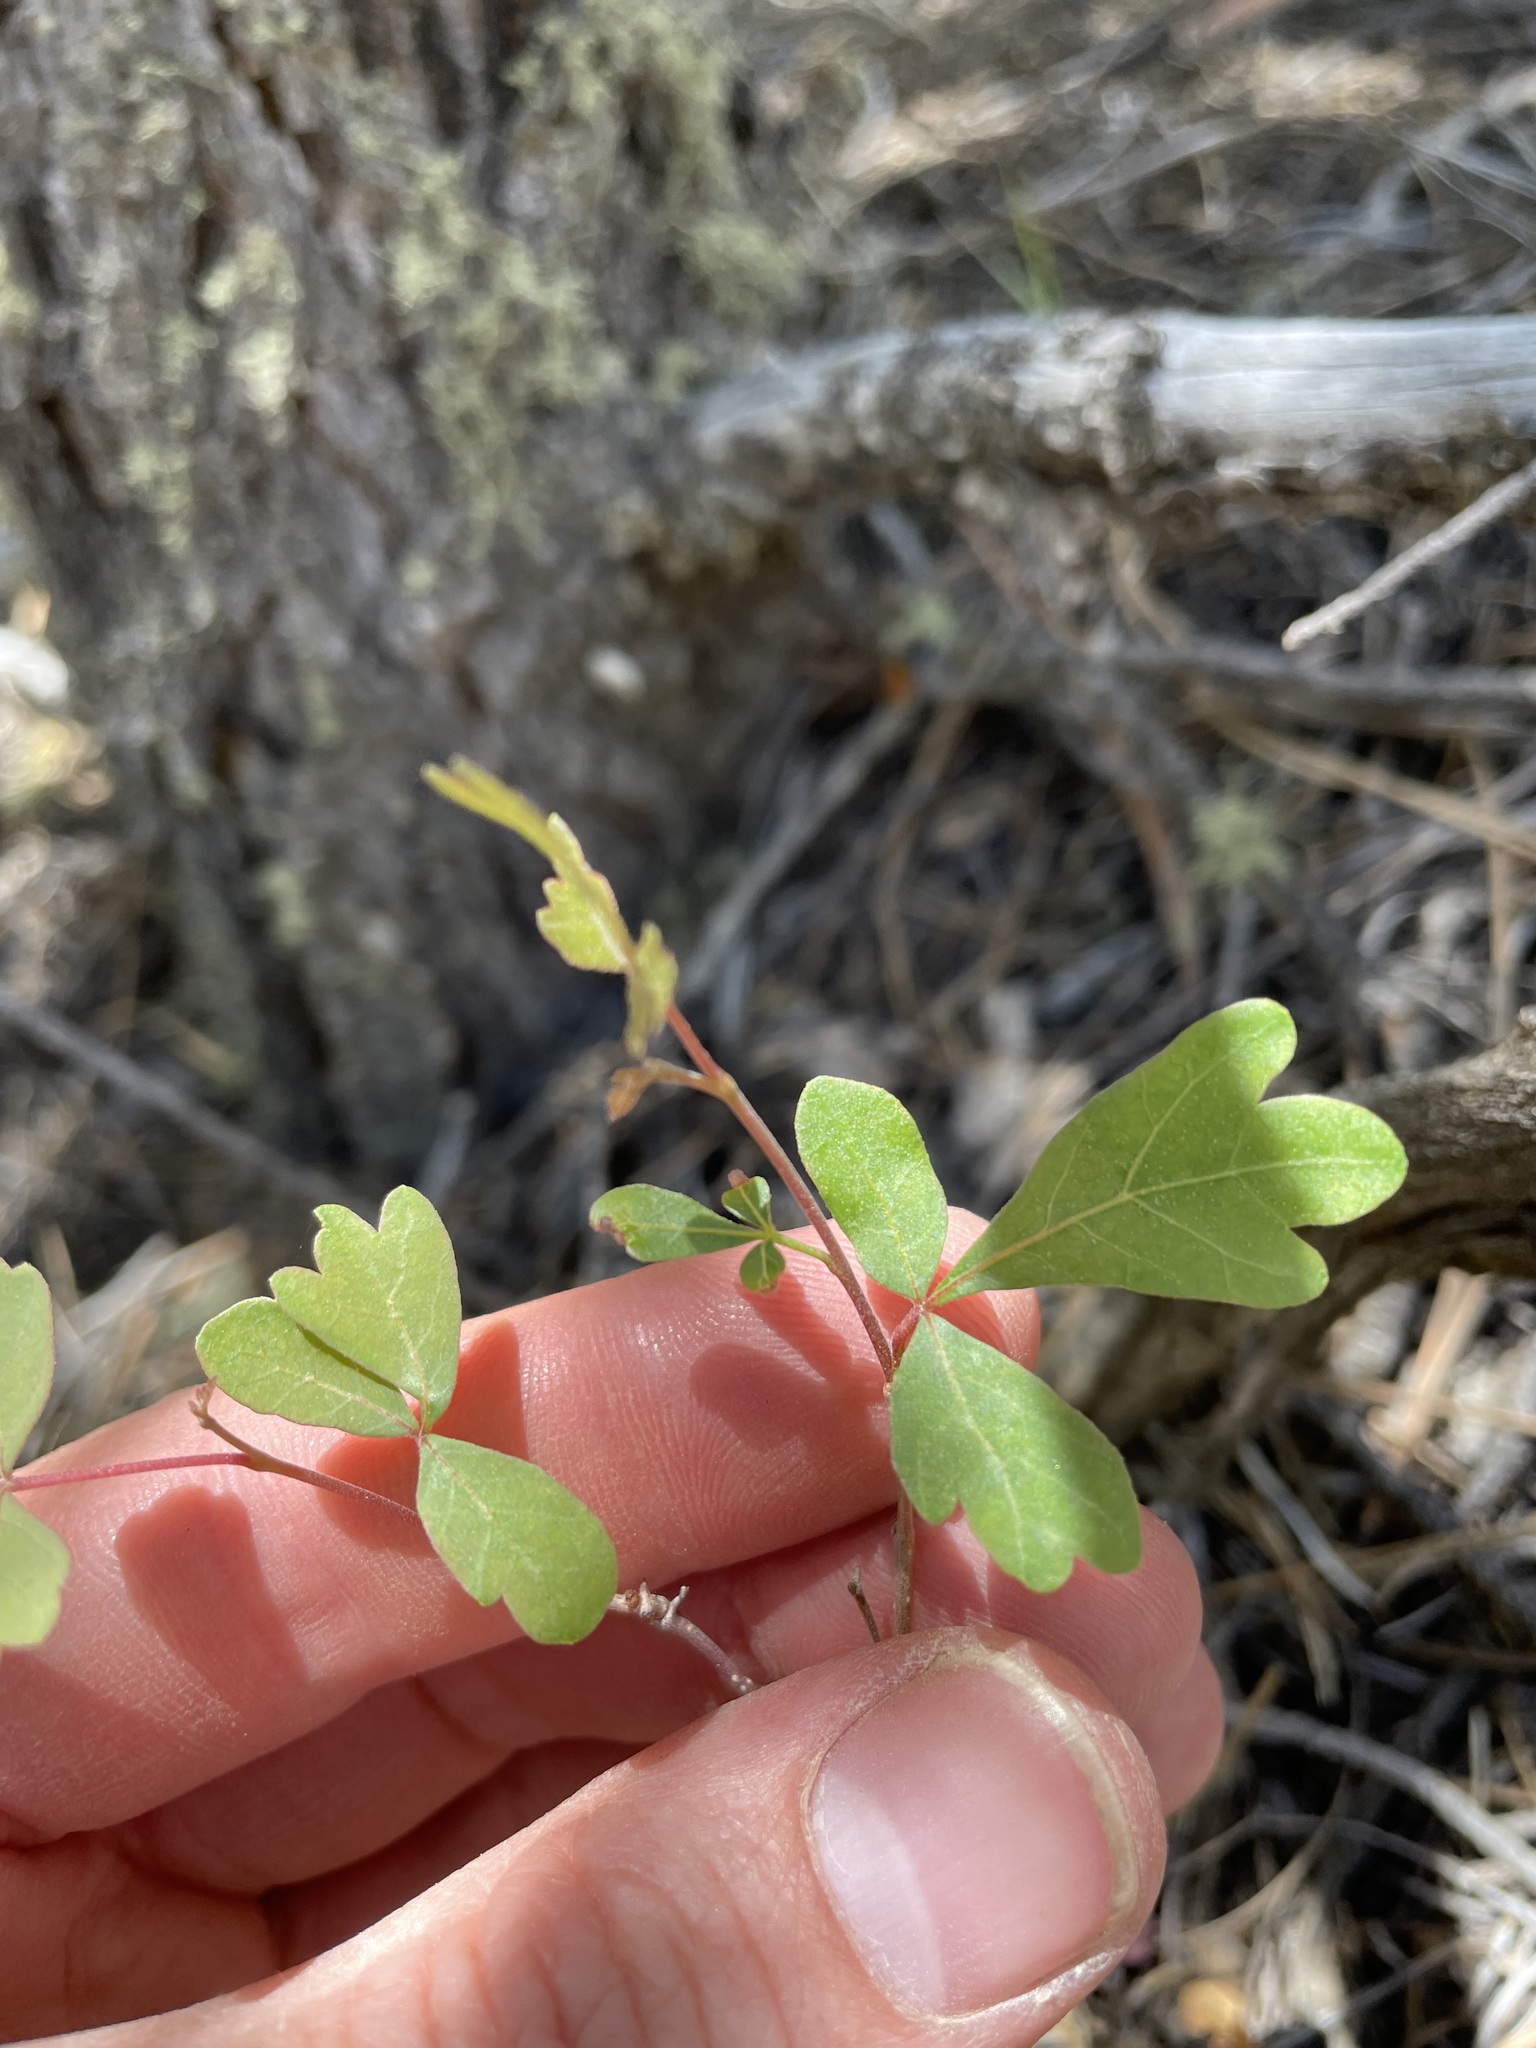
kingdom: Plantae
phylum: Tracheophyta
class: Magnoliopsida
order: Sapindales
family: Anacardiaceae
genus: Rhus
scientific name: Rhus trilobata
